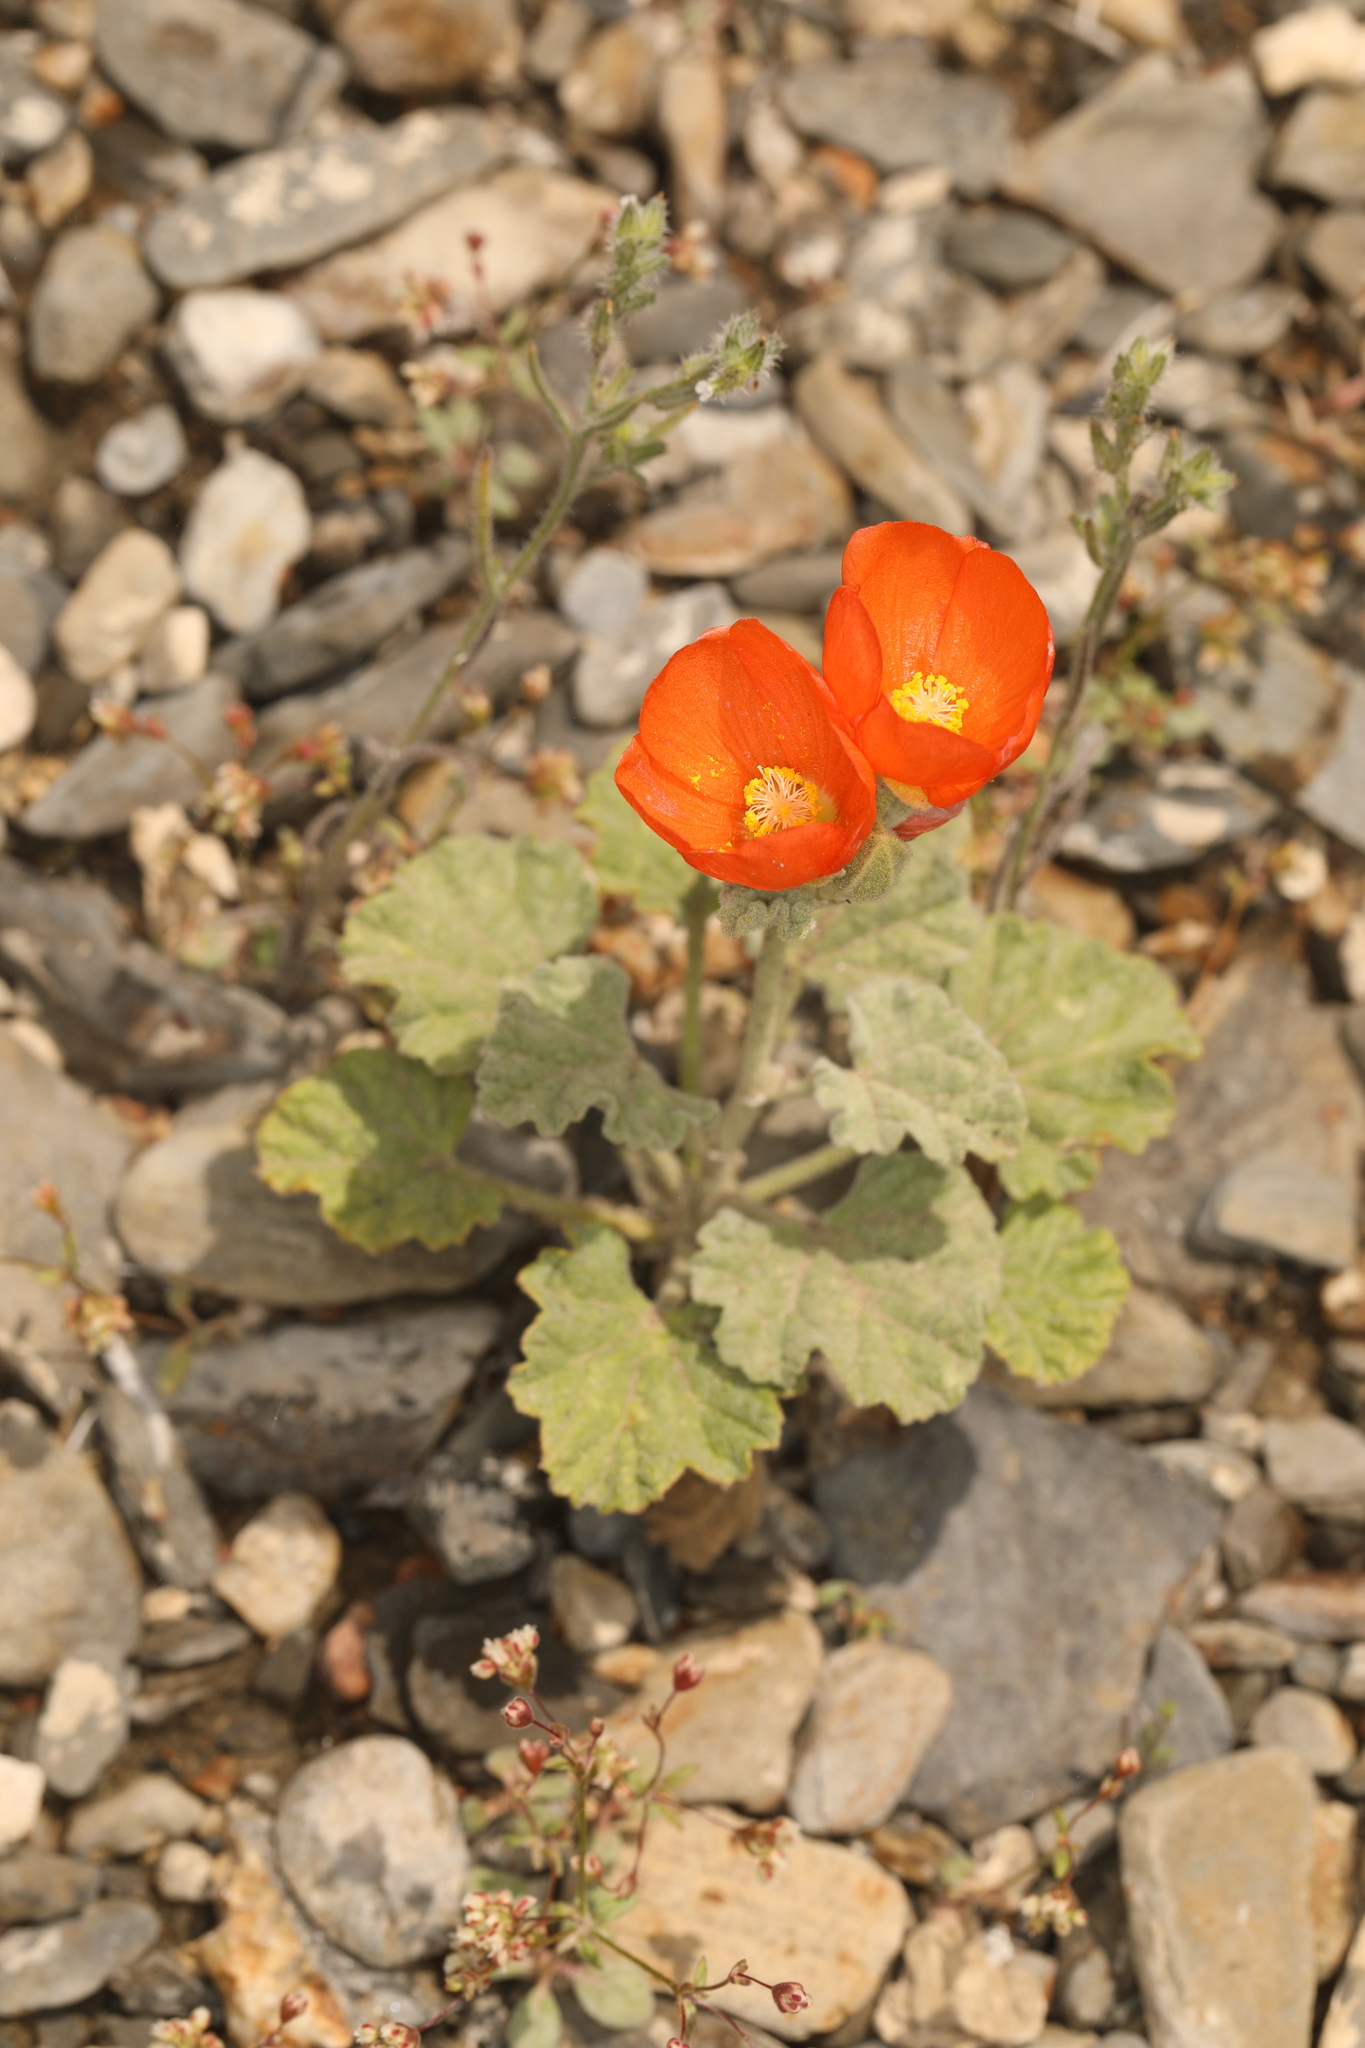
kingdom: Plantae
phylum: Tracheophyta
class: Magnoliopsida
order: Malvales
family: Malvaceae
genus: Sphaeralcea
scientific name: Sphaeralcea ambigua
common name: Apricot globe-mallow
